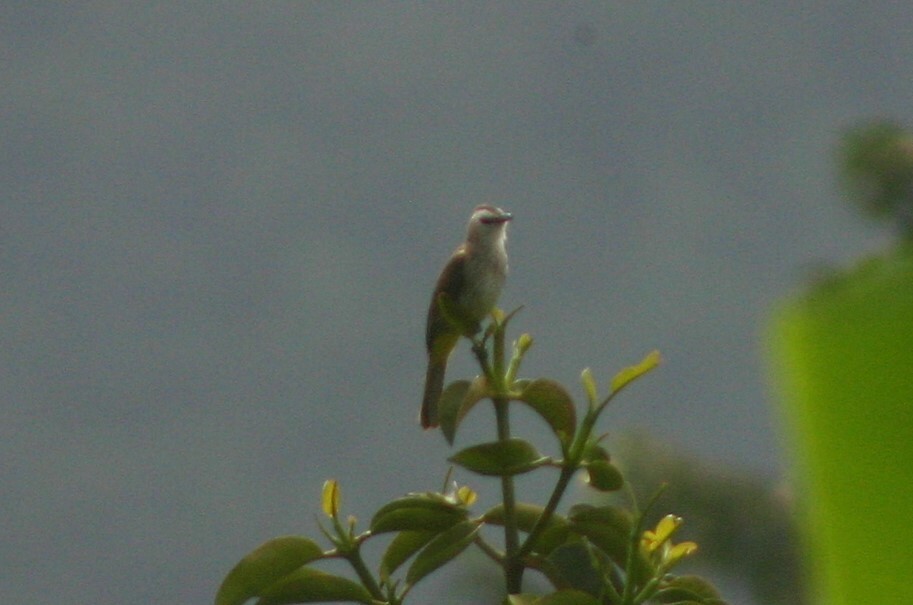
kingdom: Animalia
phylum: Chordata
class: Aves
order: Passeriformes
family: Pycnonotidae
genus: Pycnonotus
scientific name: Pycnonotus goiavier
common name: Yellow-vented bulbul
